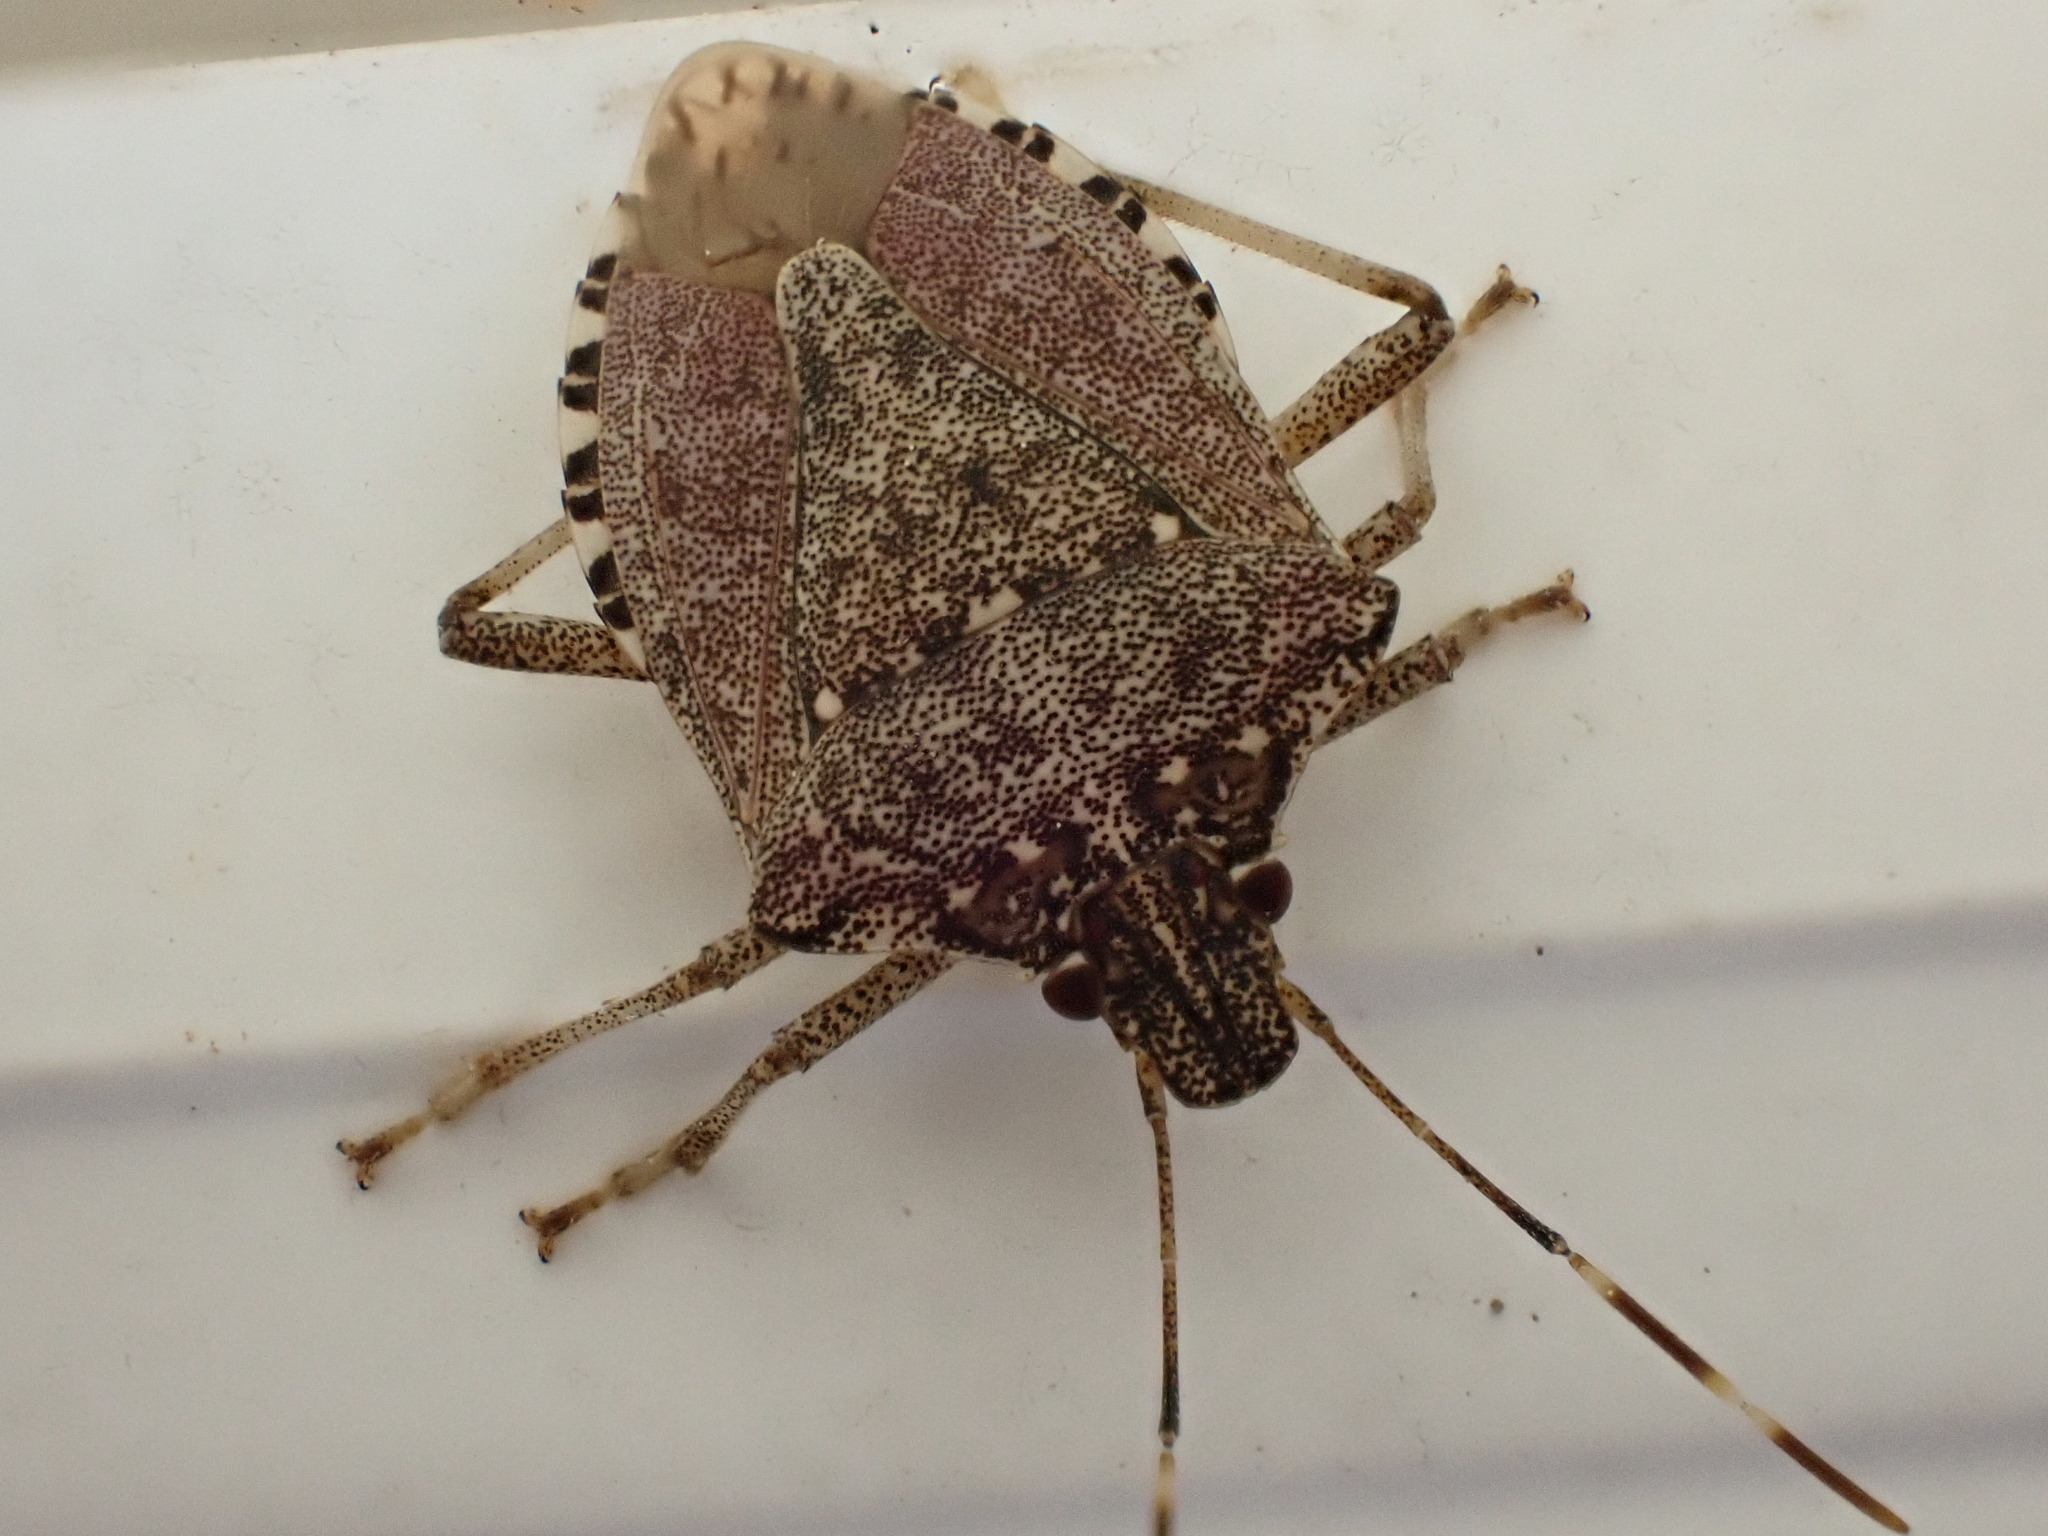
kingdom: Animalia
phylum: Arthropoda
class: Insecta
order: Hemiptera
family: Pentatomidae
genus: Halyomorpha
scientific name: Halyomorpha halys
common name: Brown marmorated stink bug
